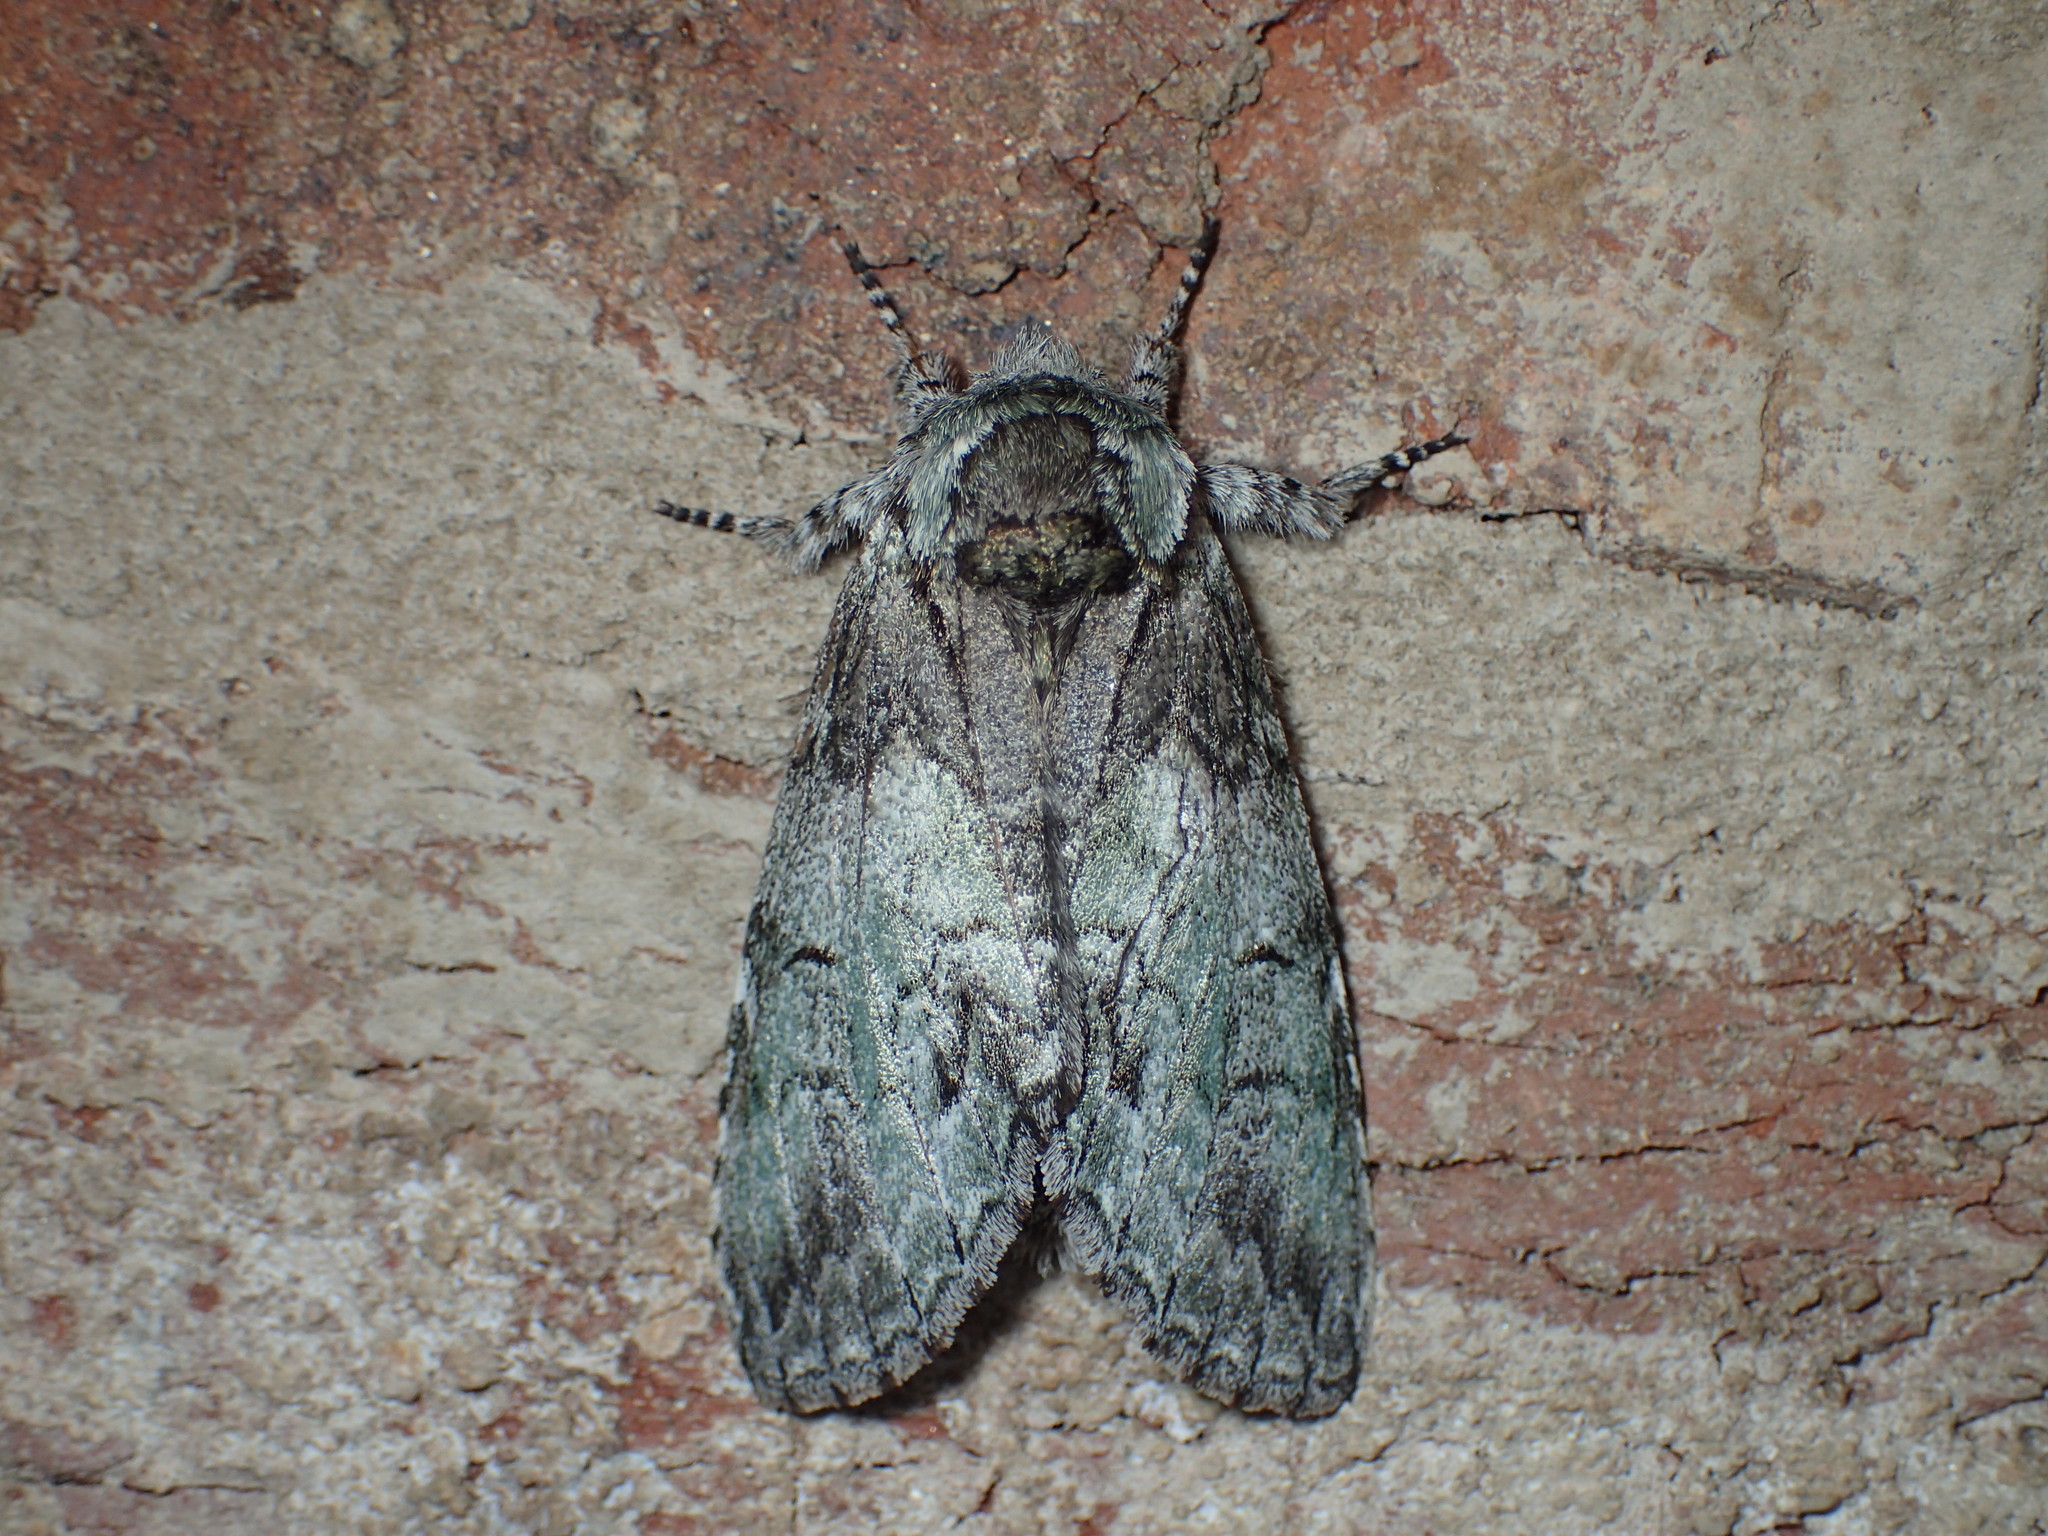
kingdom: Animalia
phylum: Arthropoda
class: Insecta
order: Lepidoptera
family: Notodontidae
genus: Macrurocampa
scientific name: Macrurocampa marthesia
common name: Mottled prominent
